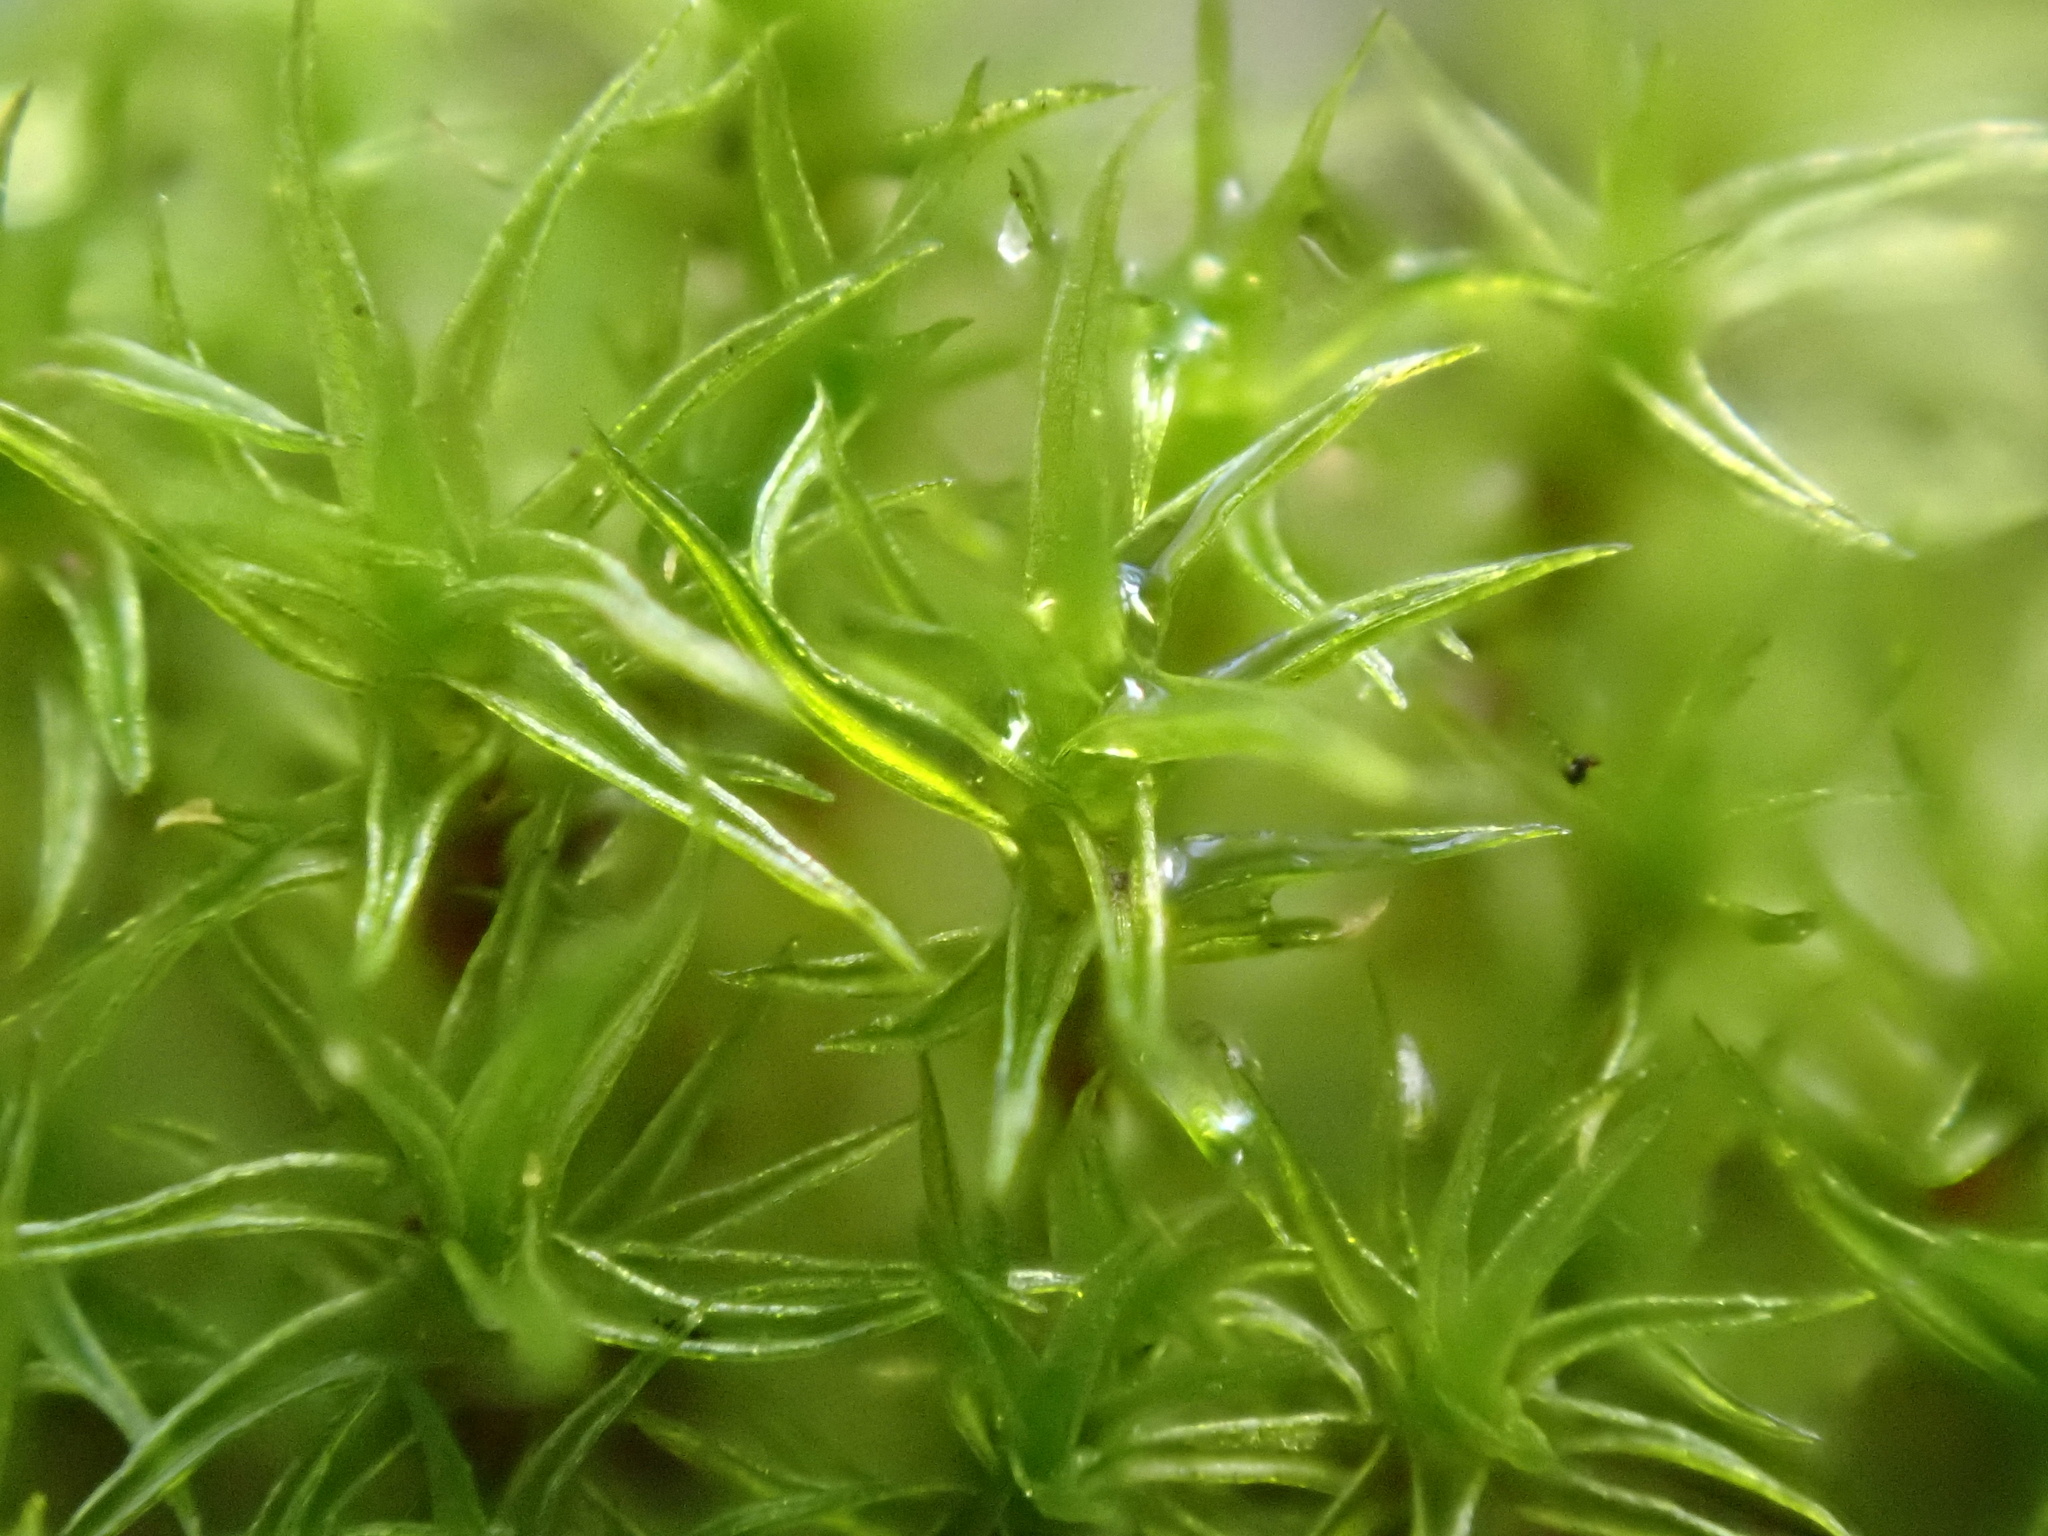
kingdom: Plantae
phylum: Bryophyta
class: Bryopsida
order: Dicranales
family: Ditrichaceae
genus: Ceratodon
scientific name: Ceratodon purpureus
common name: Redshank
